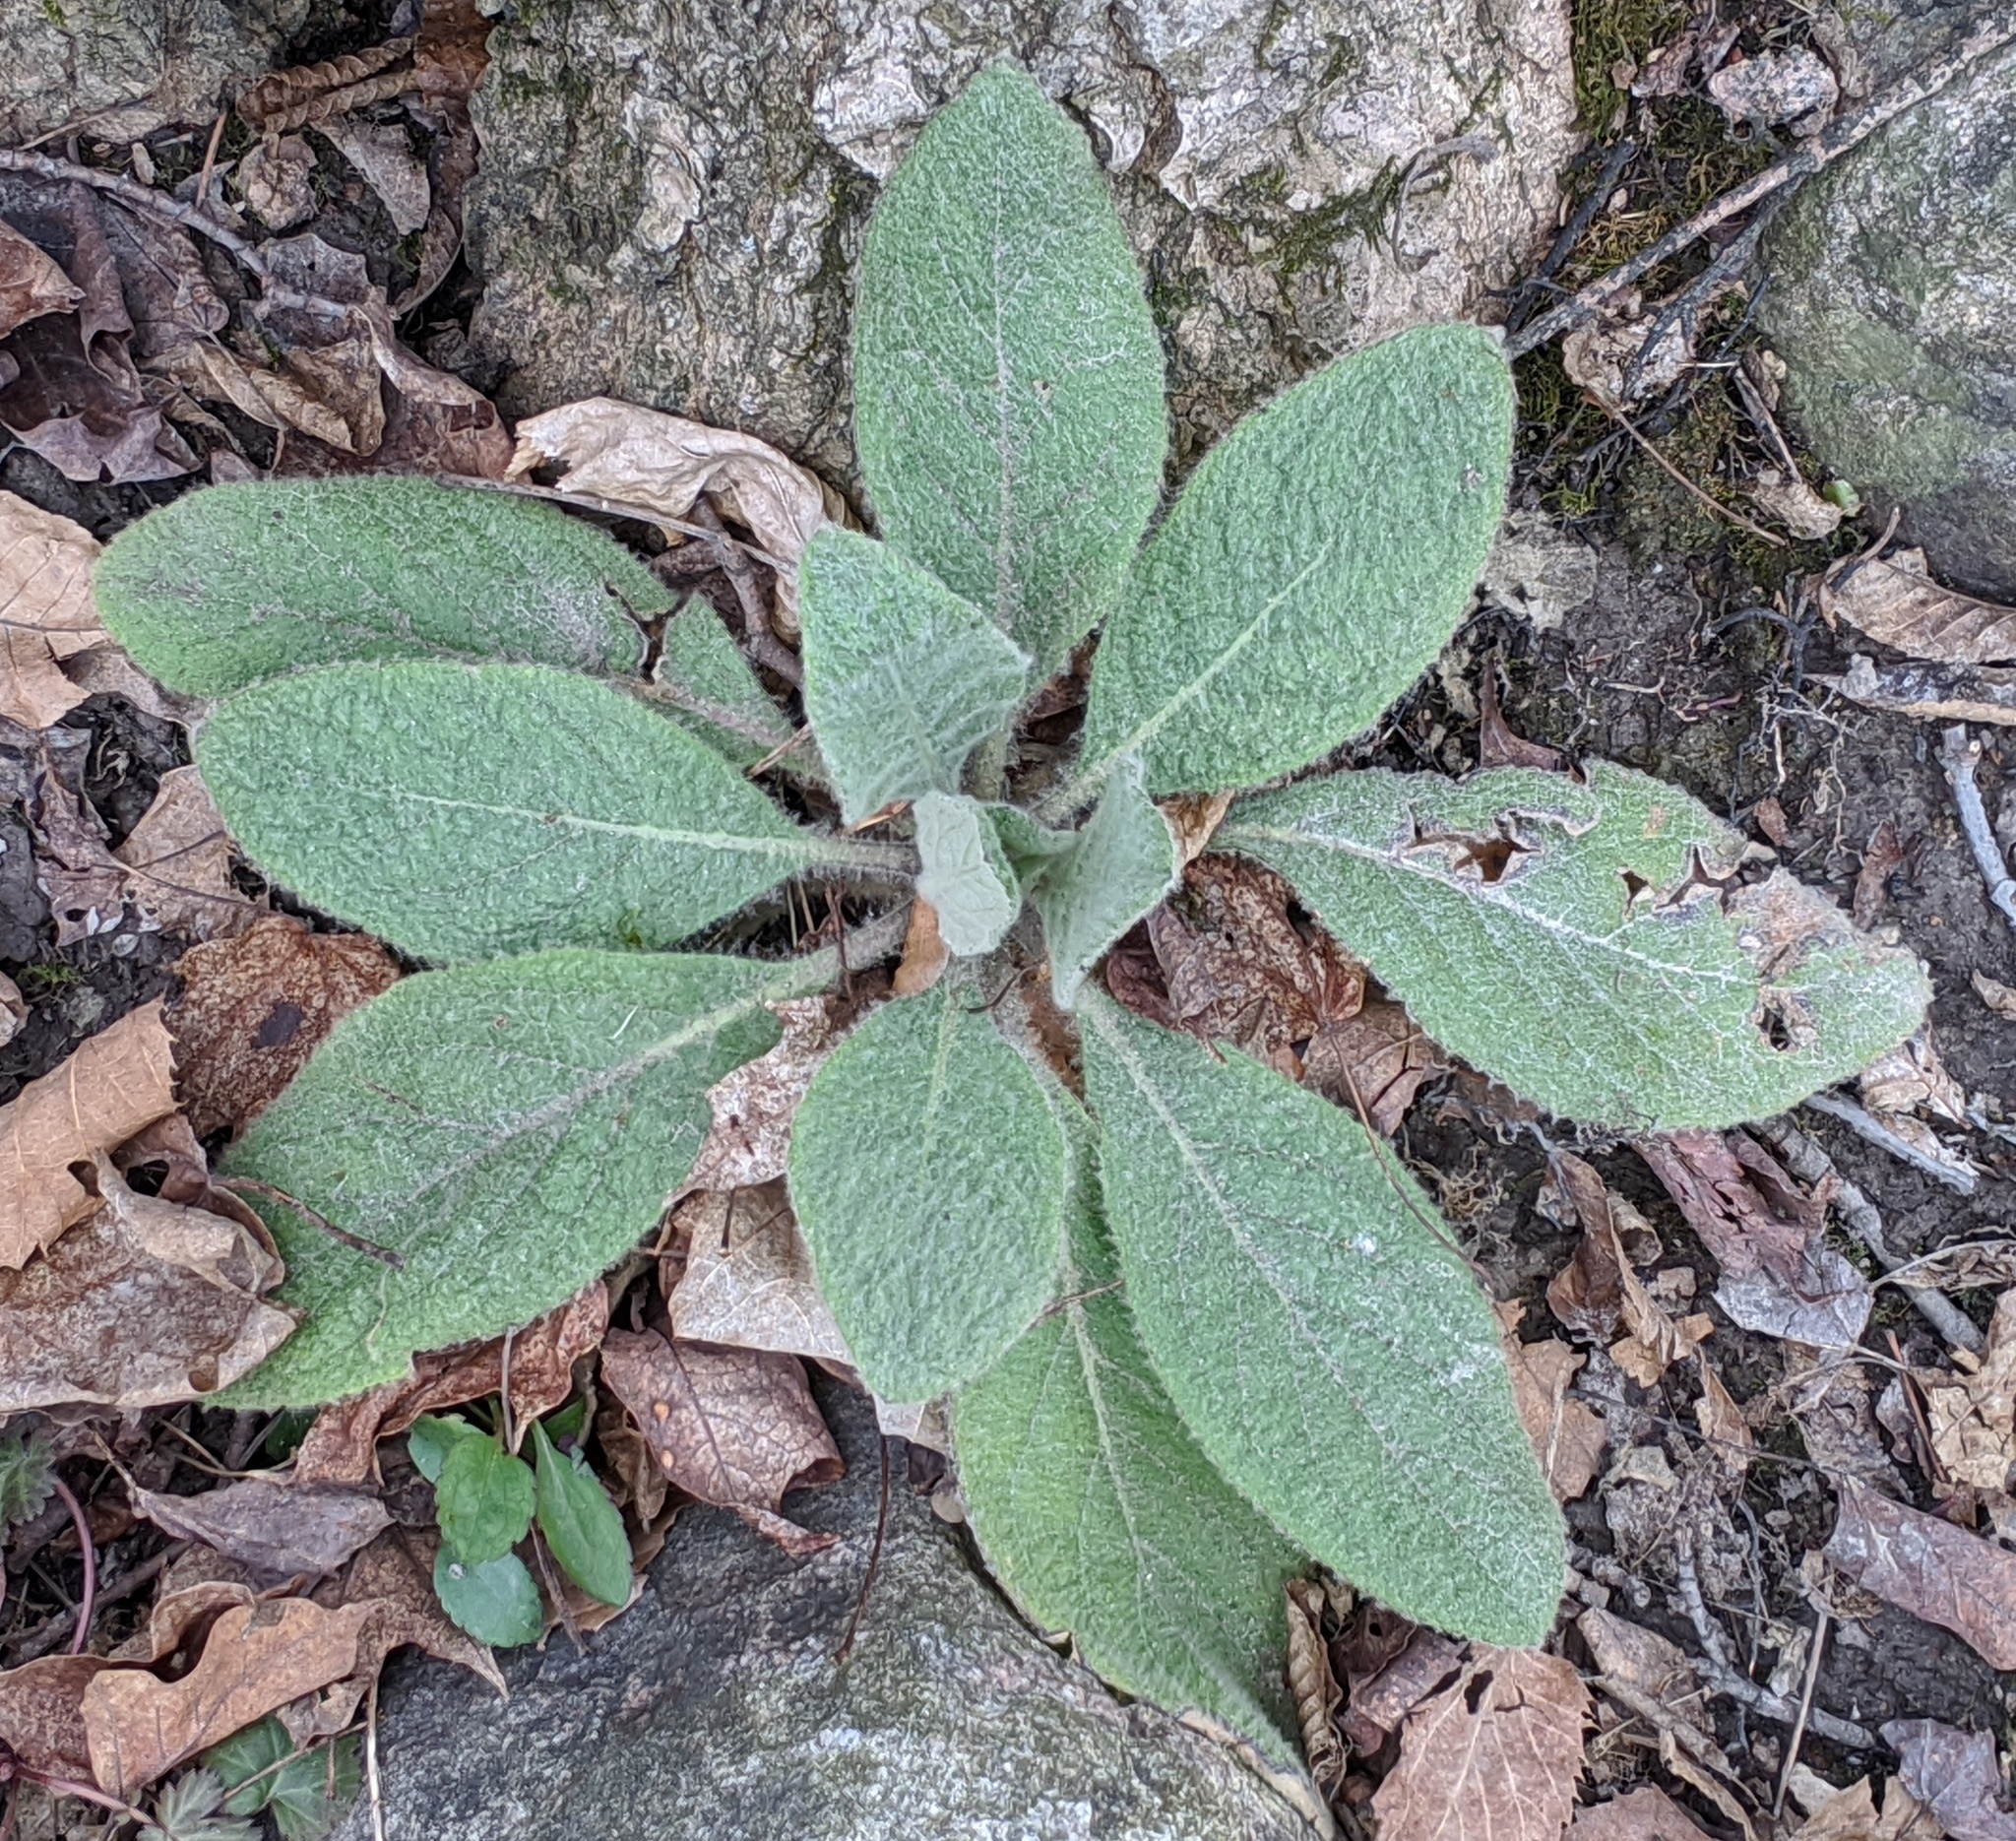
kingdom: Plantae
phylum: Tracheophyta
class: Magnoliopsida
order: Lamiales
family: Scrophulariaceae
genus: Verbascum
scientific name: Verbascum thapsus
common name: Common mullein
